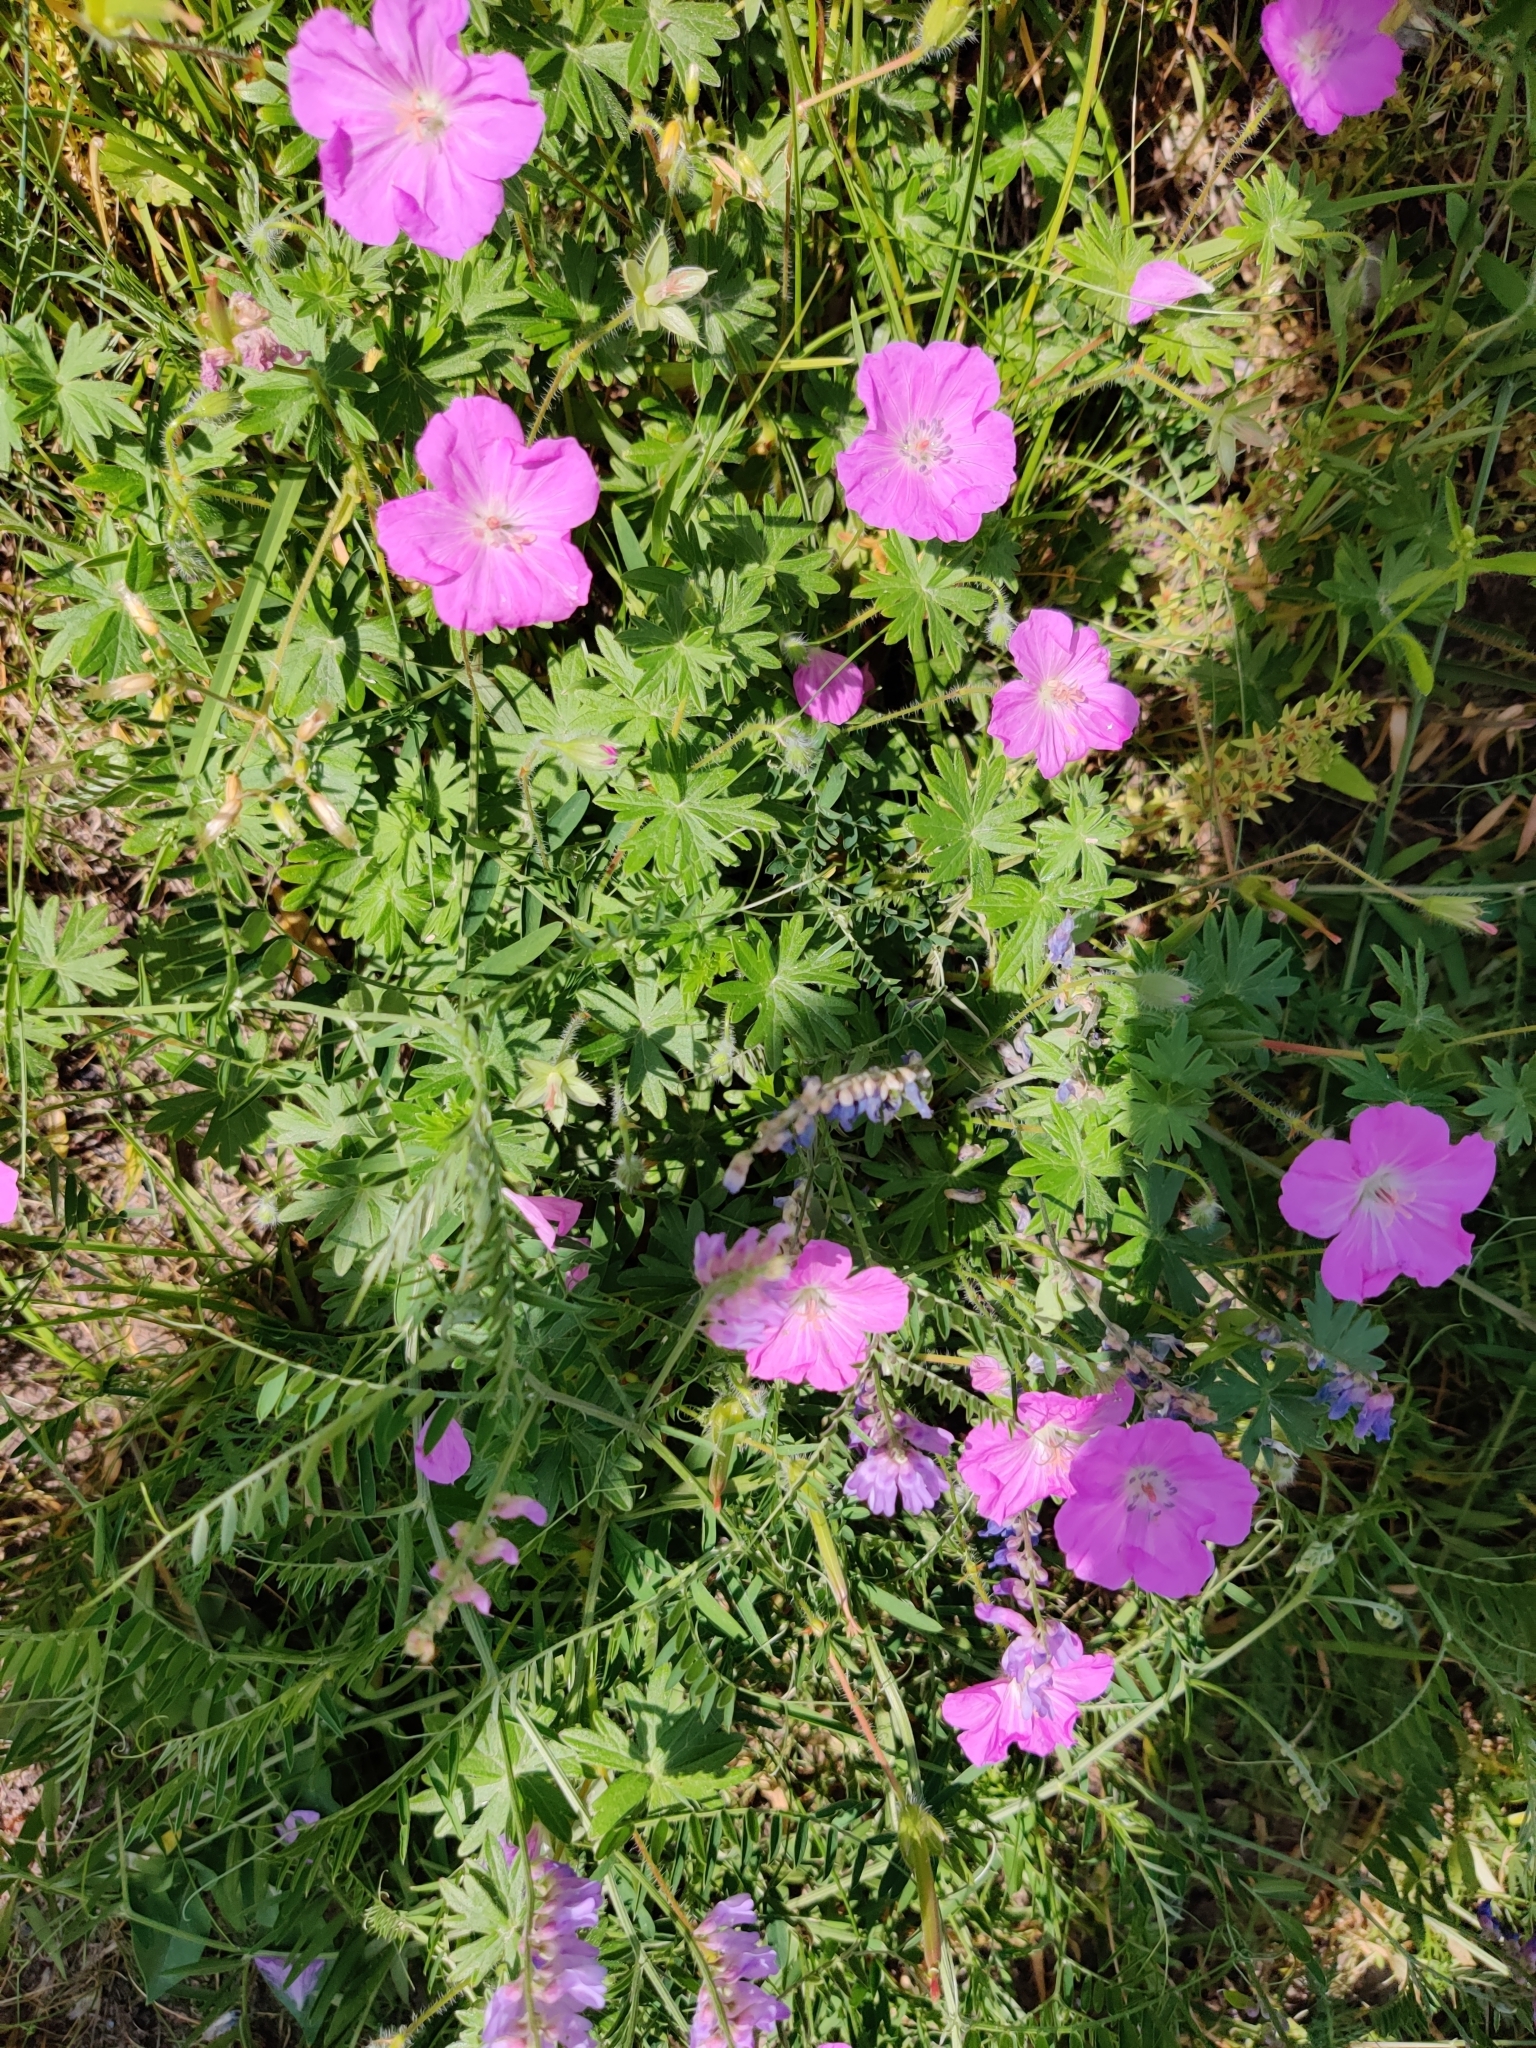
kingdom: Plantae
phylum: Tracheophyta
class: Magnoliopsida
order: Geraniales
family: Geraniaceae
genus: Geranium
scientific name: Geranium sanguineum
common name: Bloody crane's-bill
